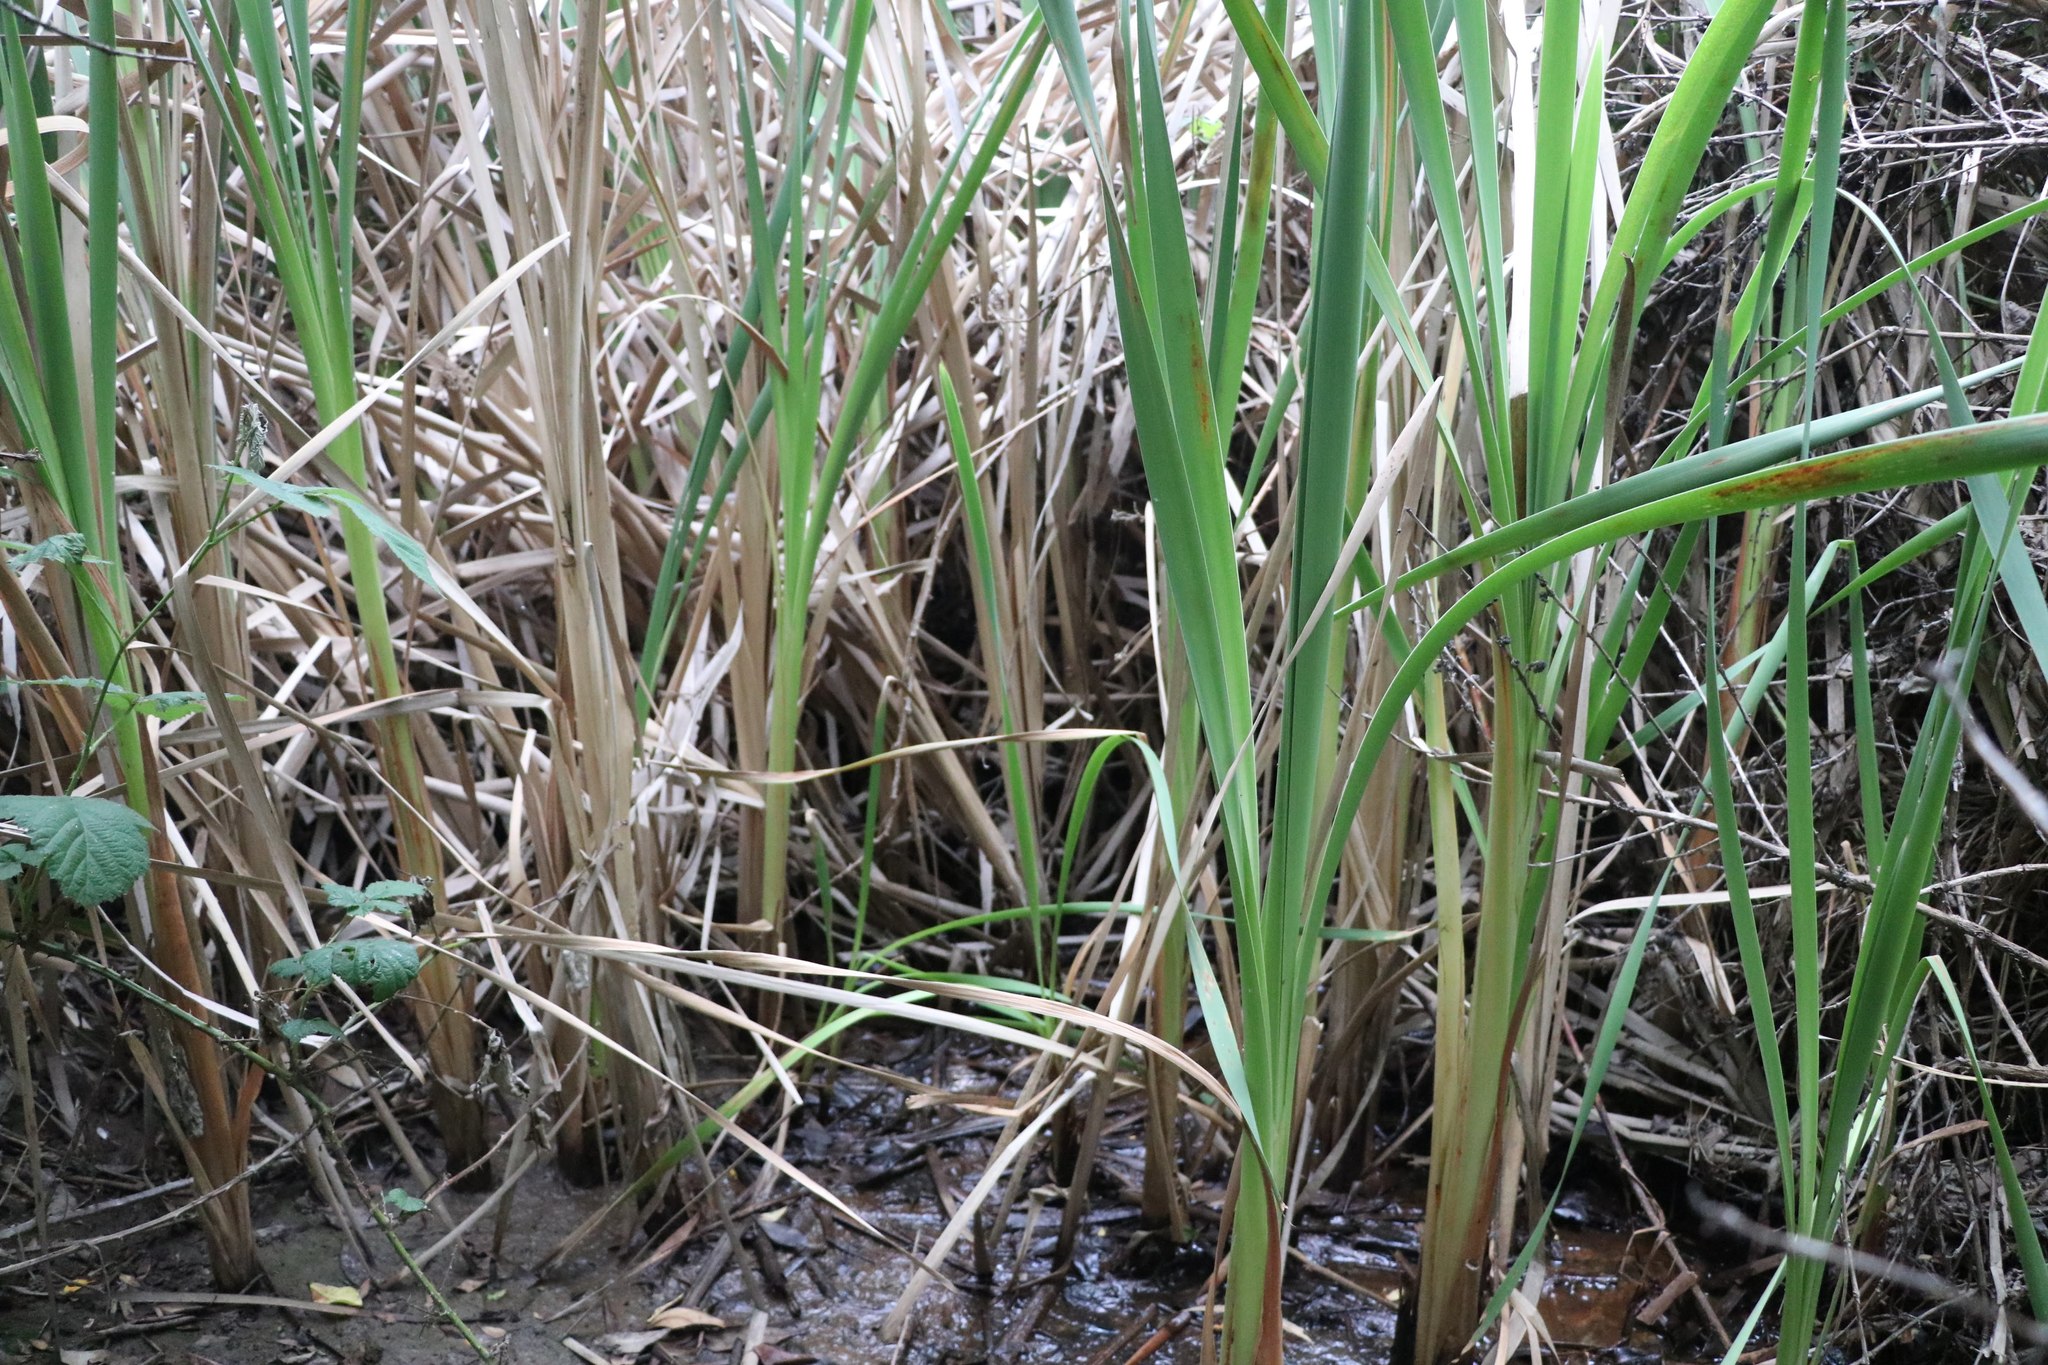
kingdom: Plantae
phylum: Tracheophyta
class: Liliopsida
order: Poales
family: Typhaceae
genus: Typha
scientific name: Typha orientalis
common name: Bullrush
